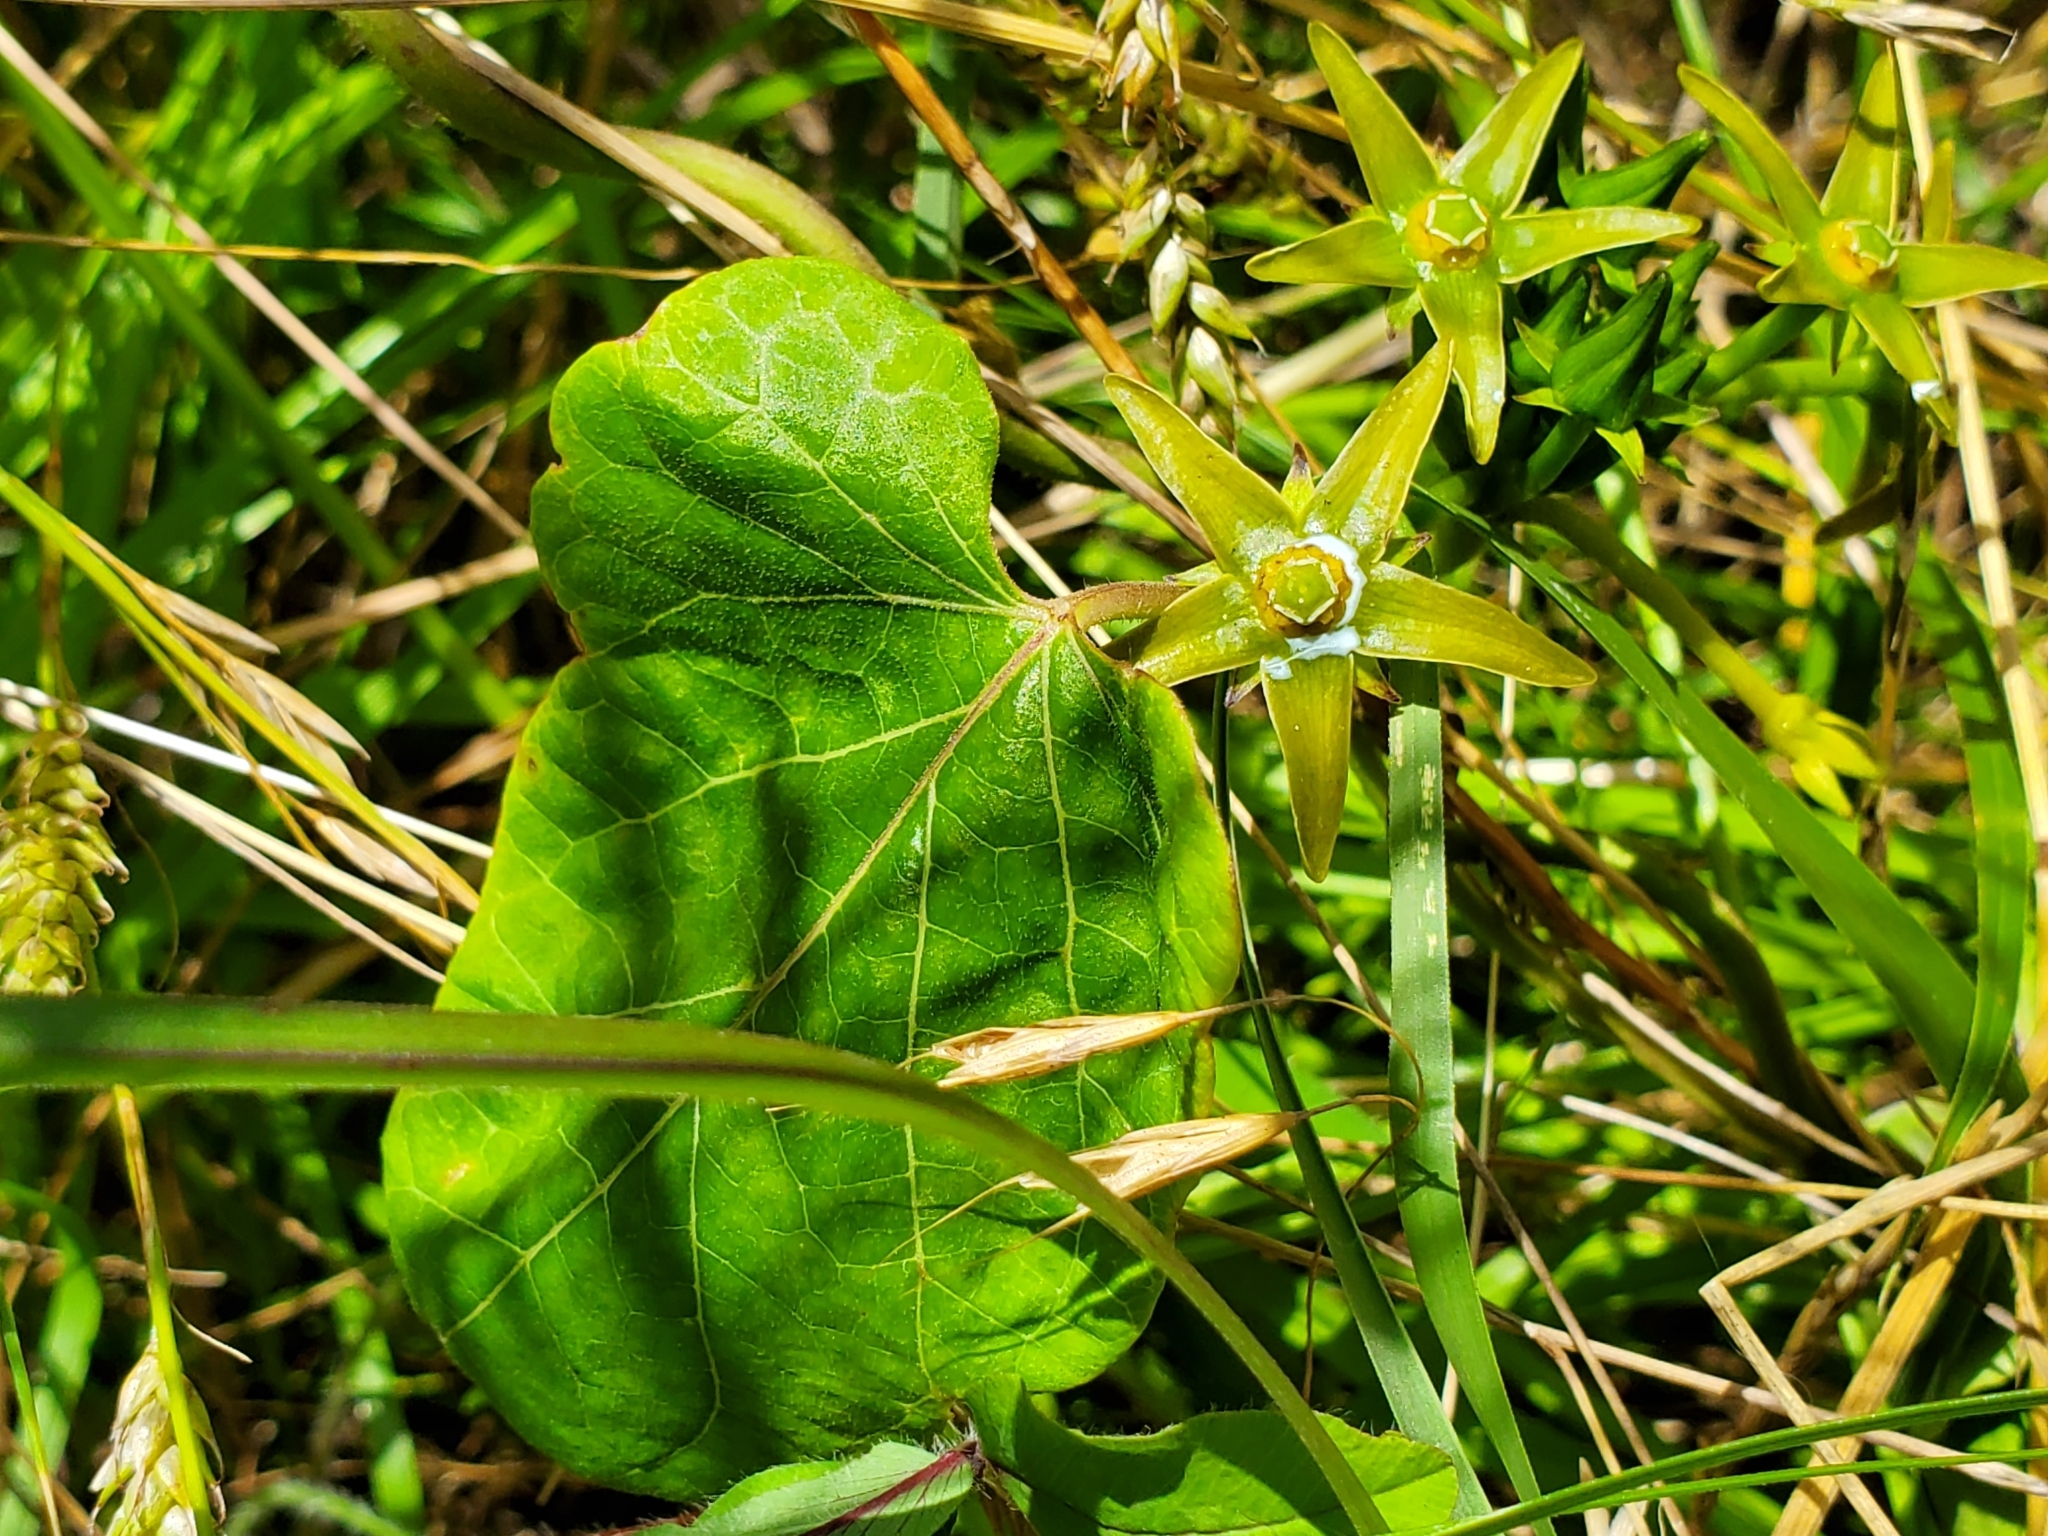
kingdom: Plantae
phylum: Tracheophyta
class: Magnoliopsida
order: Gentianales
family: Apocynaceae
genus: Gonolobus
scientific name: Gonolobus suberosus
